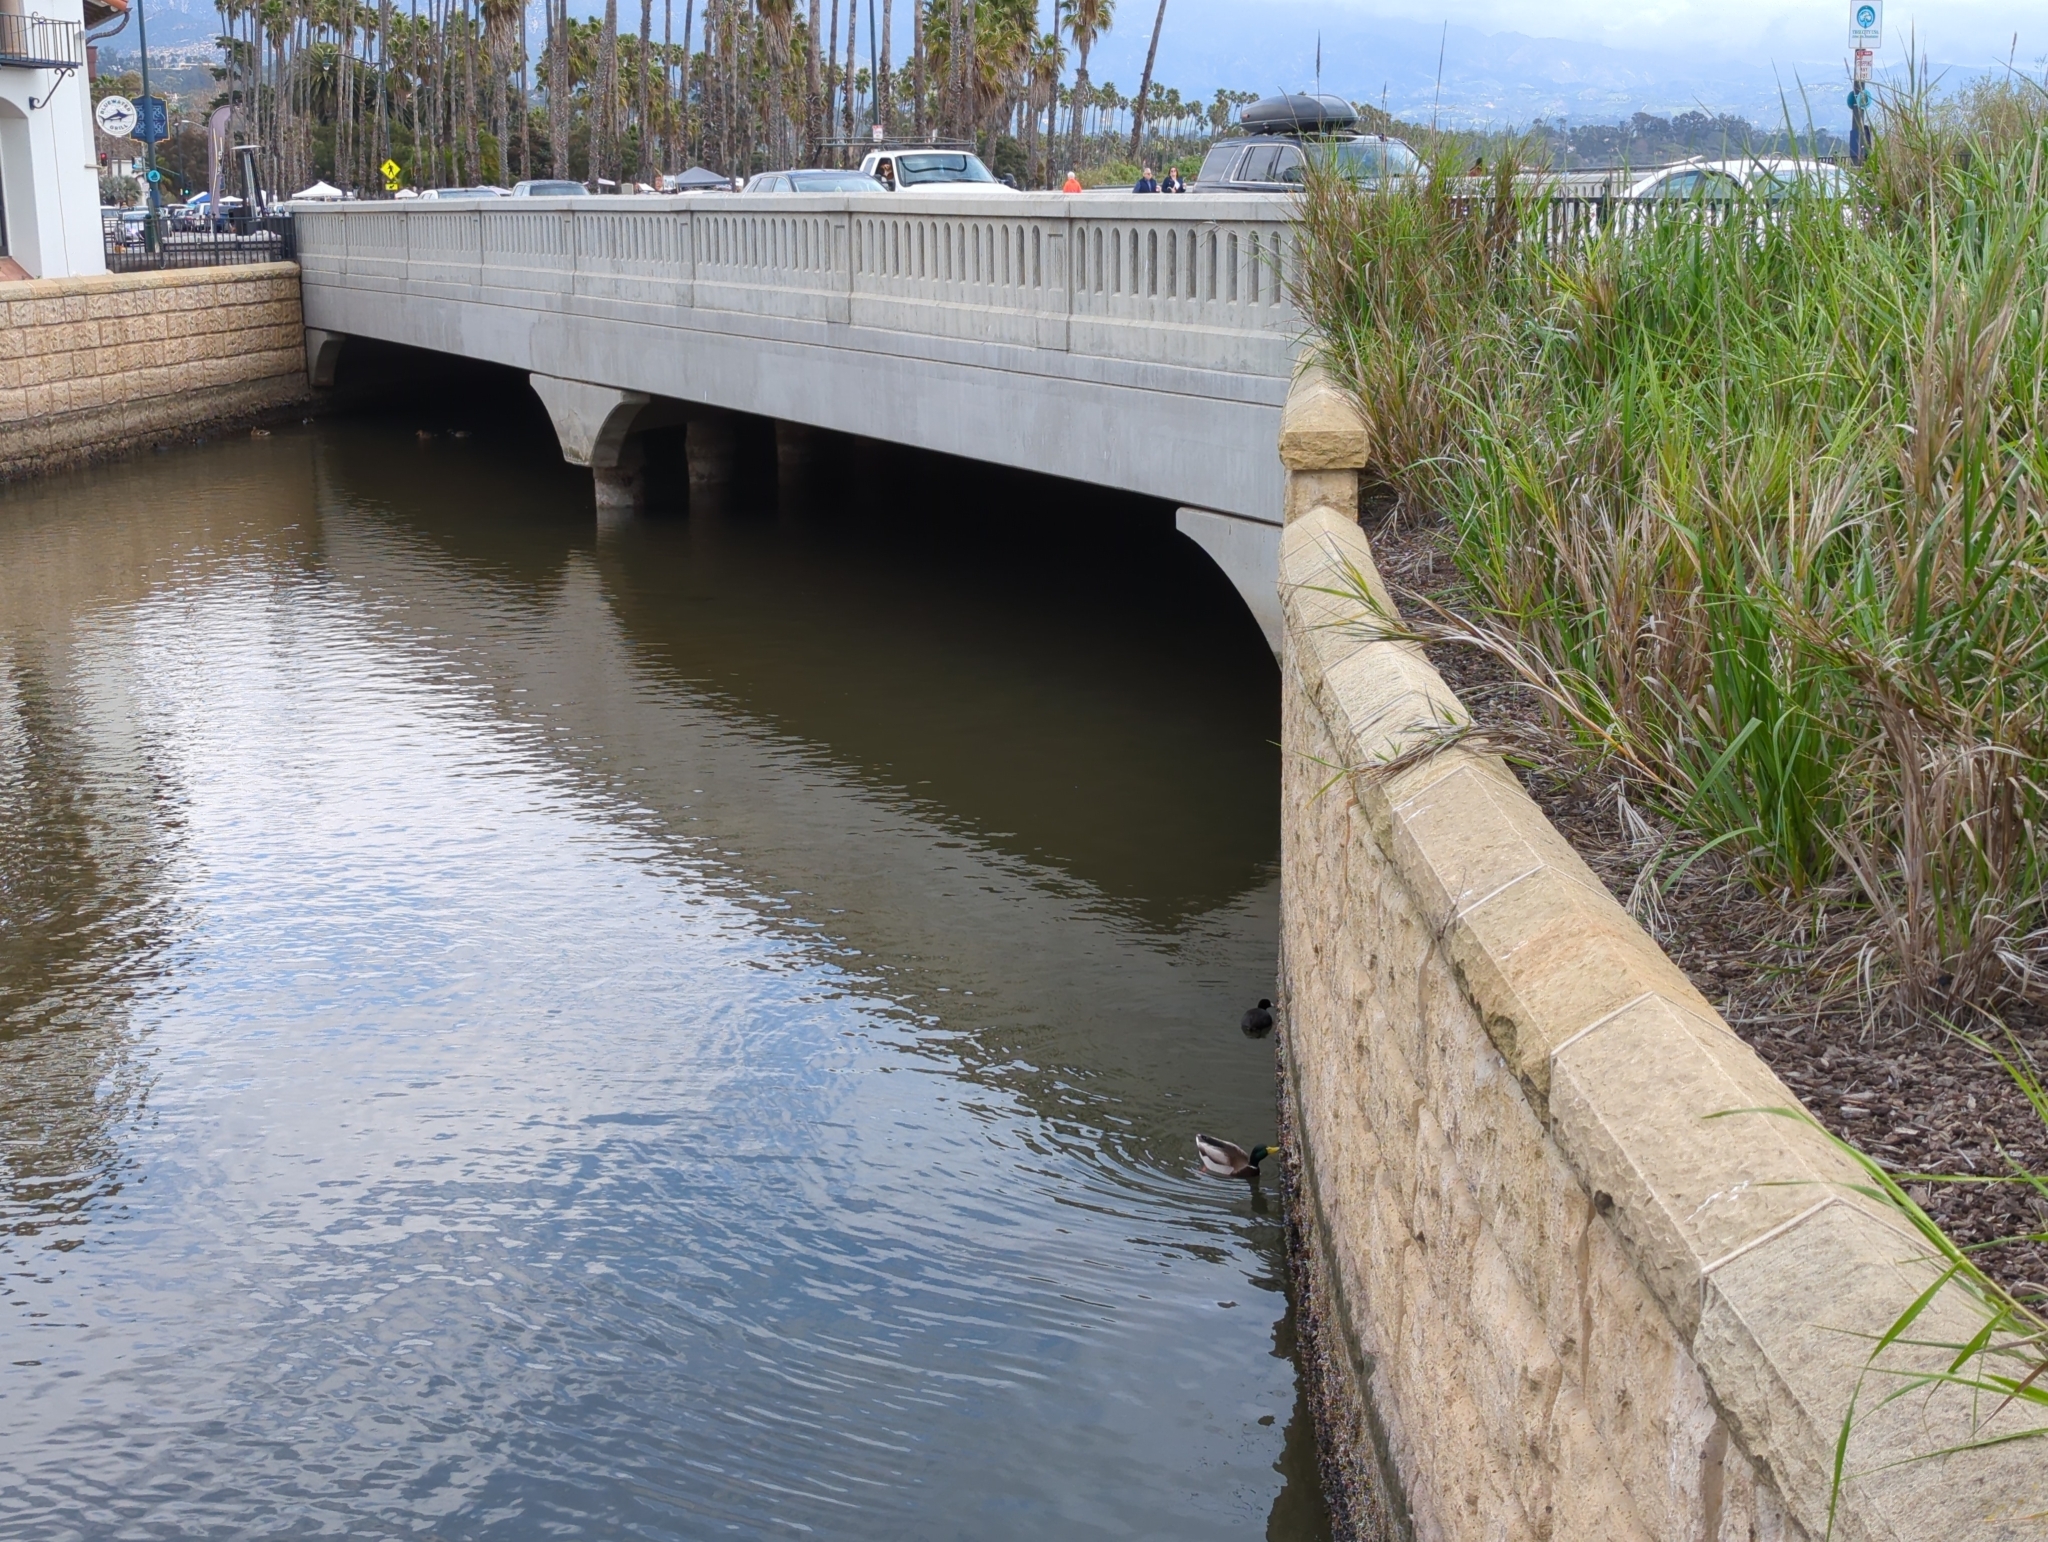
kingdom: Animalia
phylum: Chordata
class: Aves
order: Gruiformes
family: Rallidae
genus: Fulica
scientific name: Fulica americana
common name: American coot
